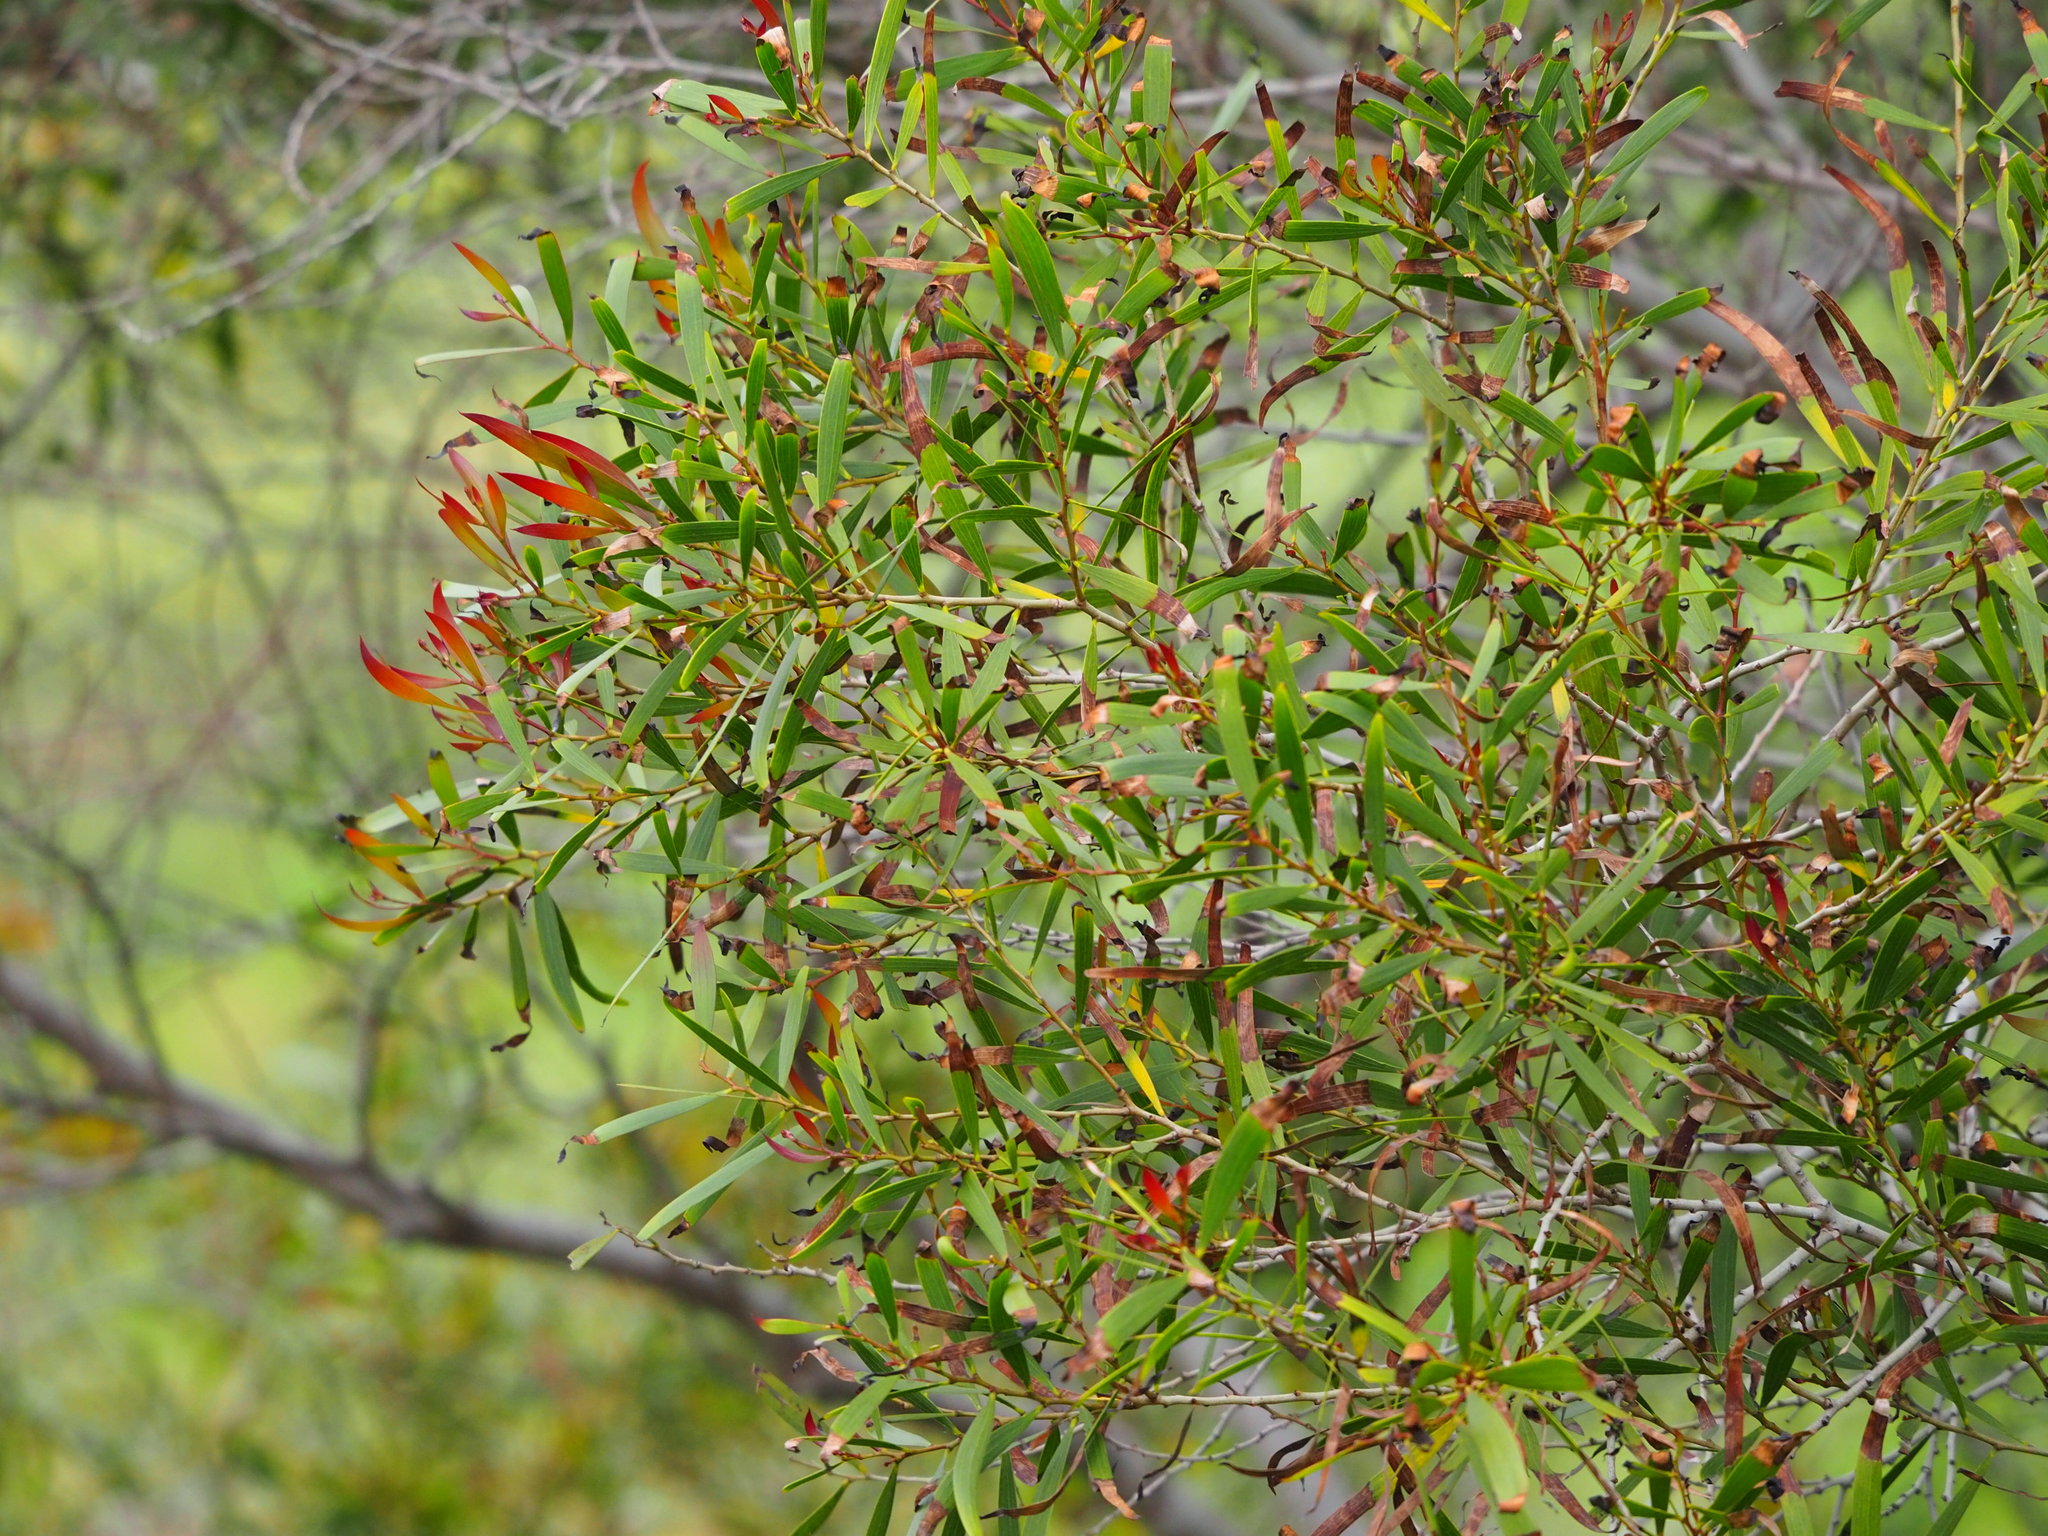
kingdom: Plantae
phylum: Tracheophyta
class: Magnoliopsida
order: Fabales
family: Fabaceae
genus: Acacia
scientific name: Acacia confusa
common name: Formosan koa
